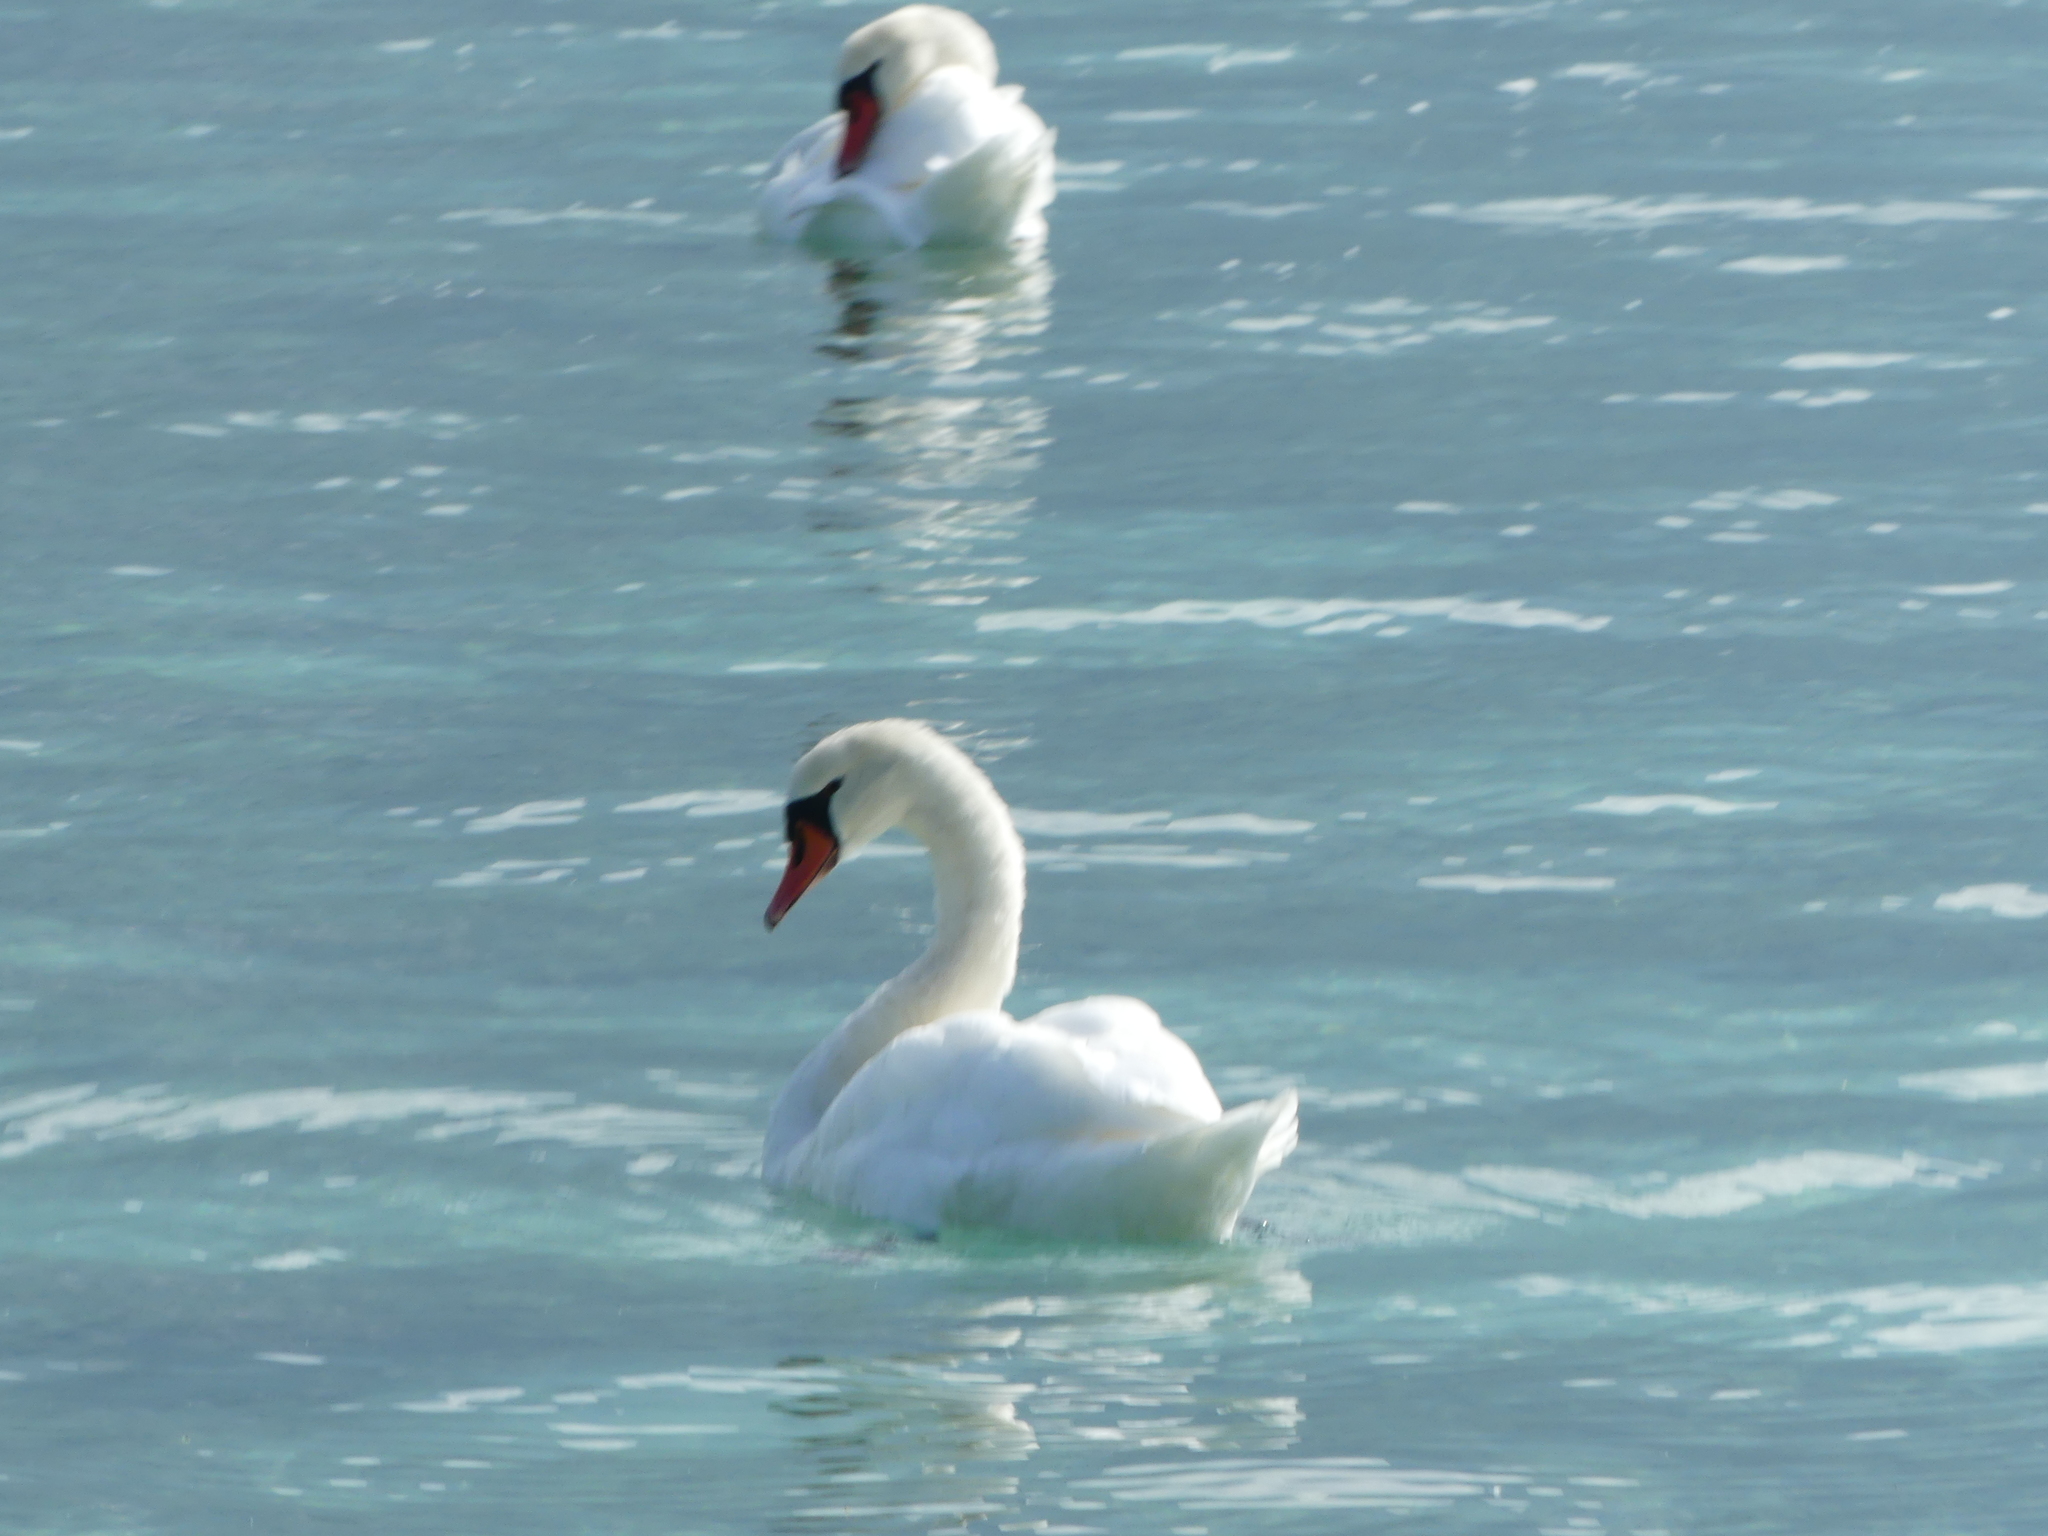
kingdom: Animalia
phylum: Chordata
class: Aves
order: Anseriformes
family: Anatidae
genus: Cygnus
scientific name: Cygnus olor
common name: Mute swan
